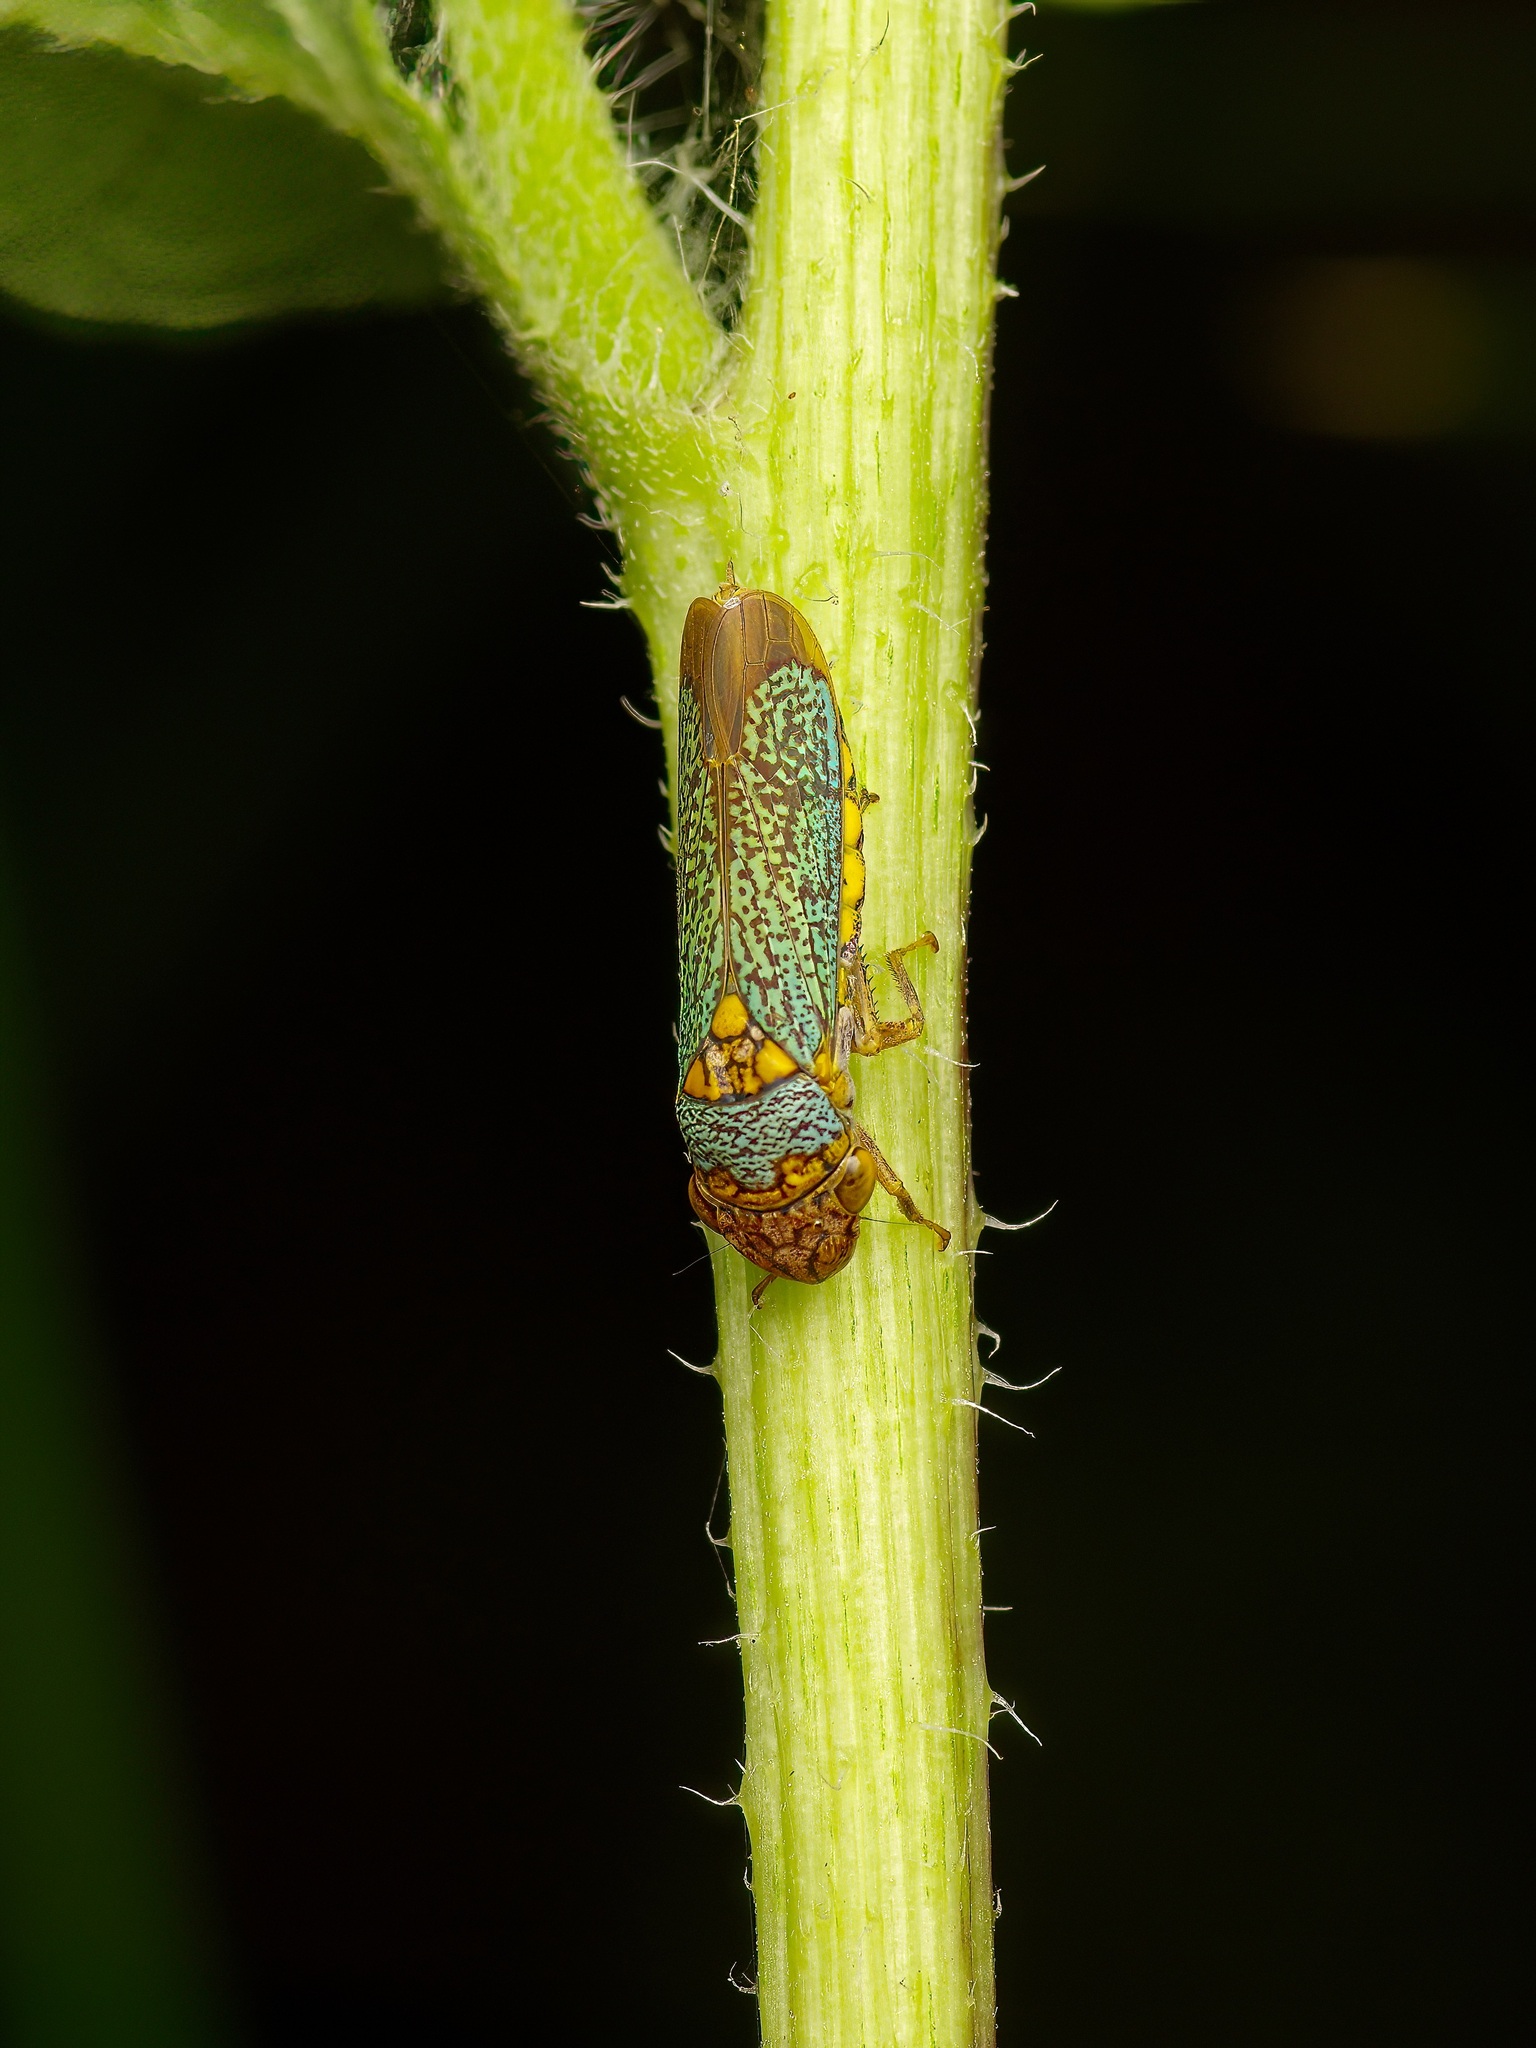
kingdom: Animalia
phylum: Arthropoda
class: Insecta
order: Hemiptera
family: Cicadellidae
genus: Oncometopia
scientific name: Oncometopia orbona
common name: Broad-headed sharpshooter
